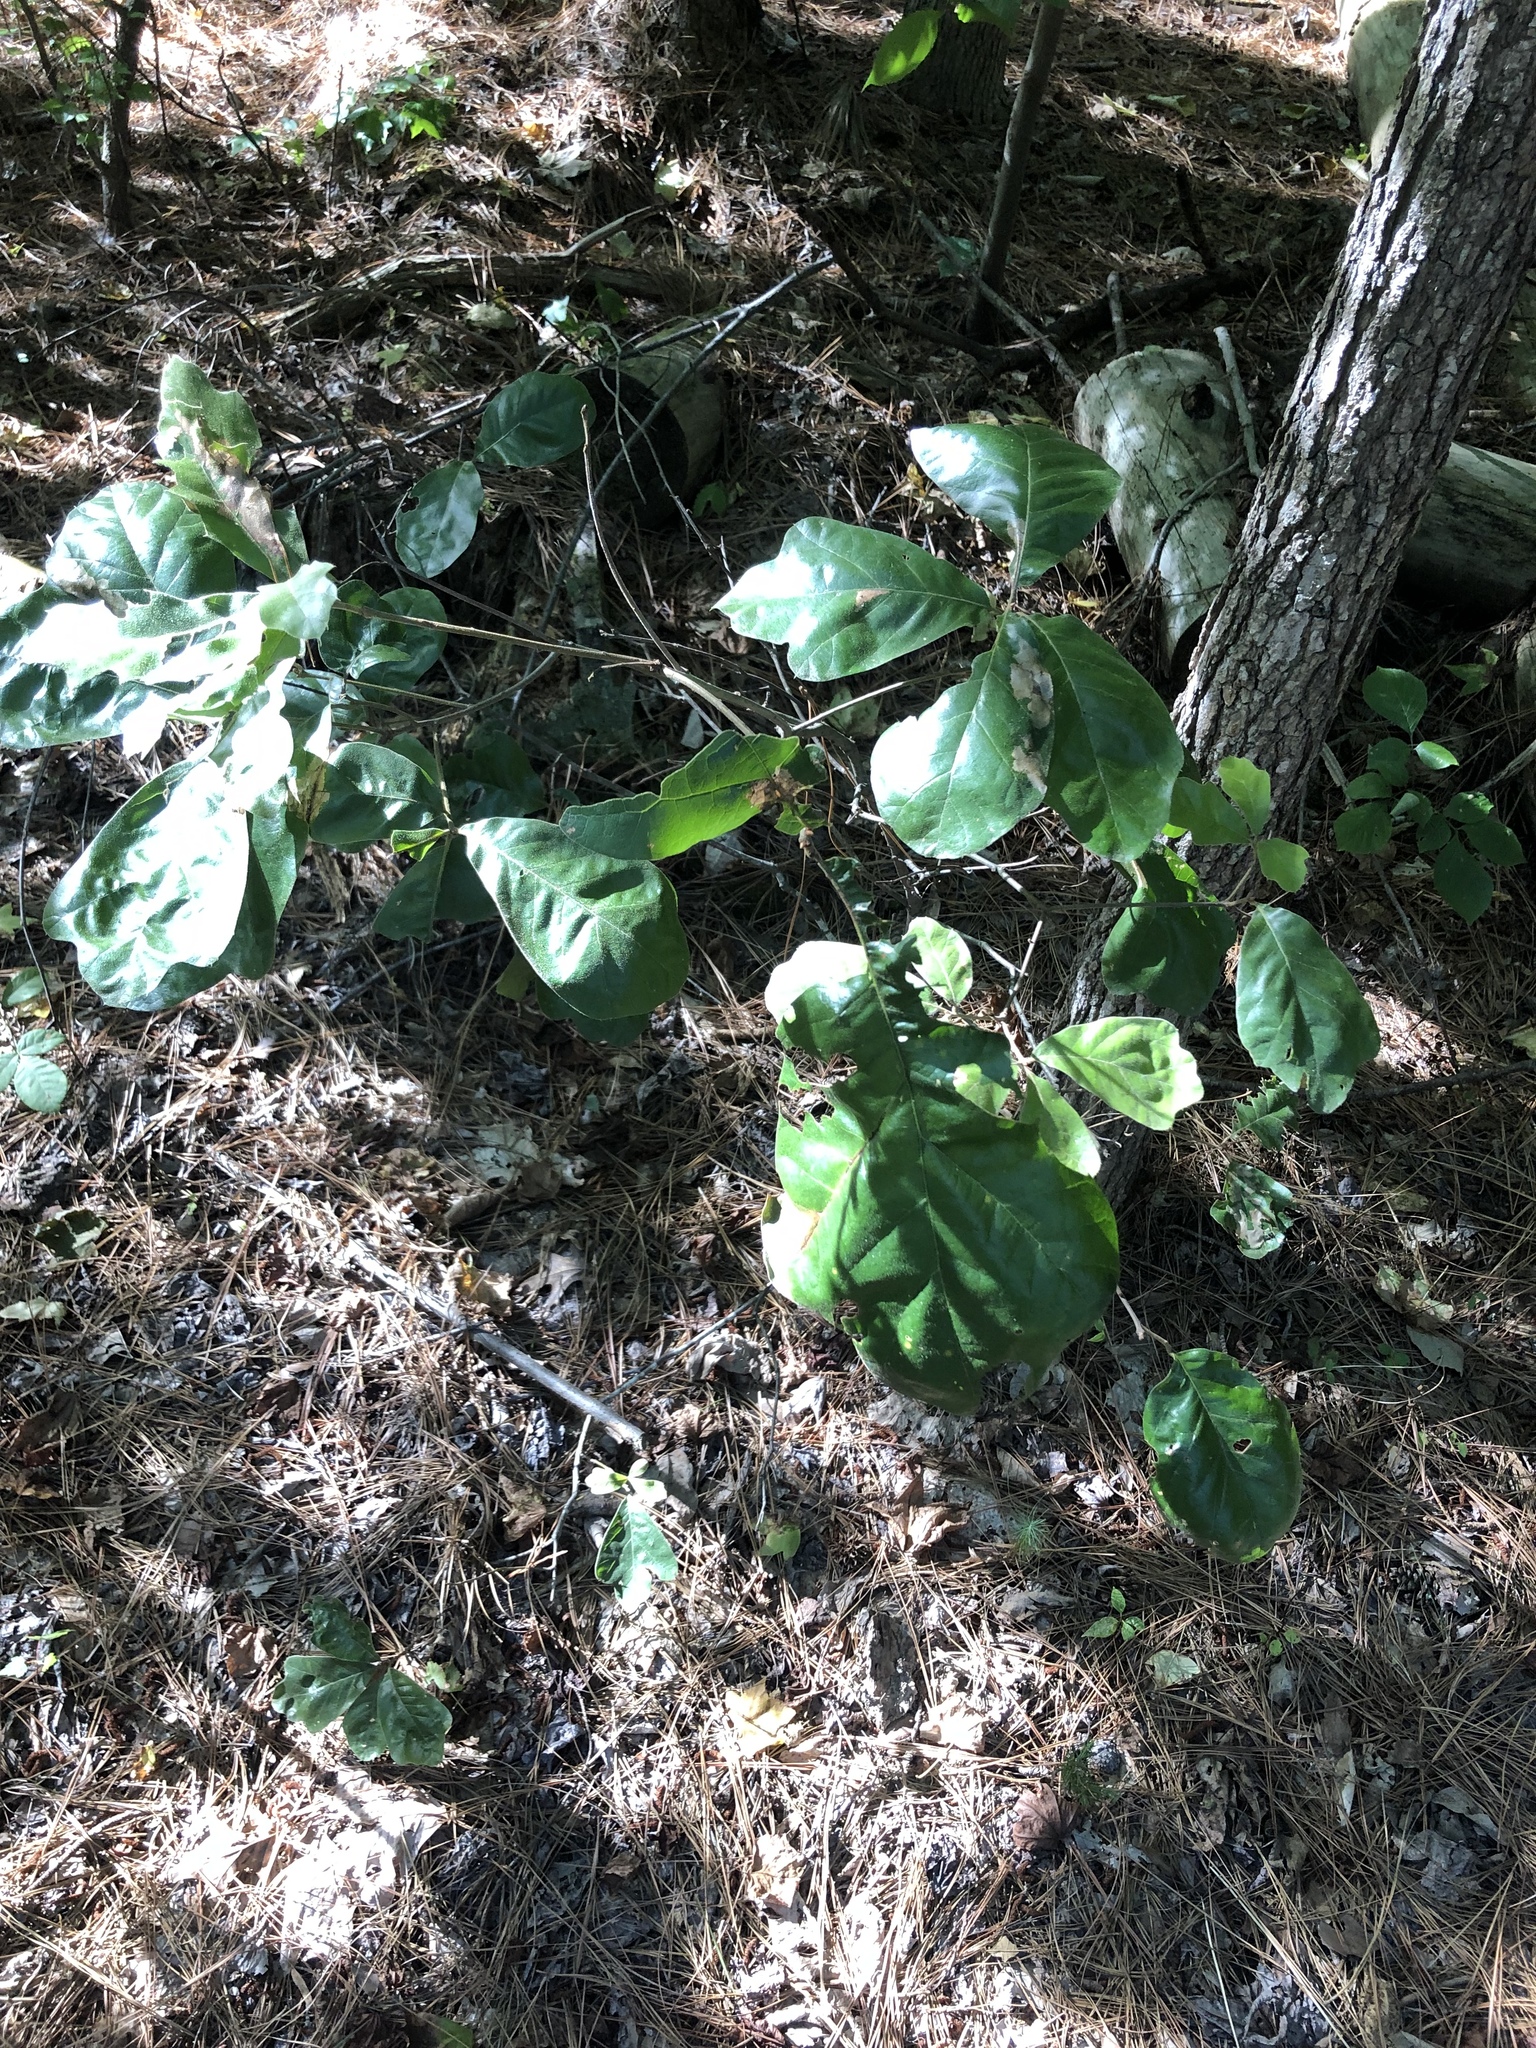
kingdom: Plantae
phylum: Tracheophyta
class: Magnoliopsida
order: Fagales
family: Fagaceae
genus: Quercus
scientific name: Quercus marilandica
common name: Blackjack oak
